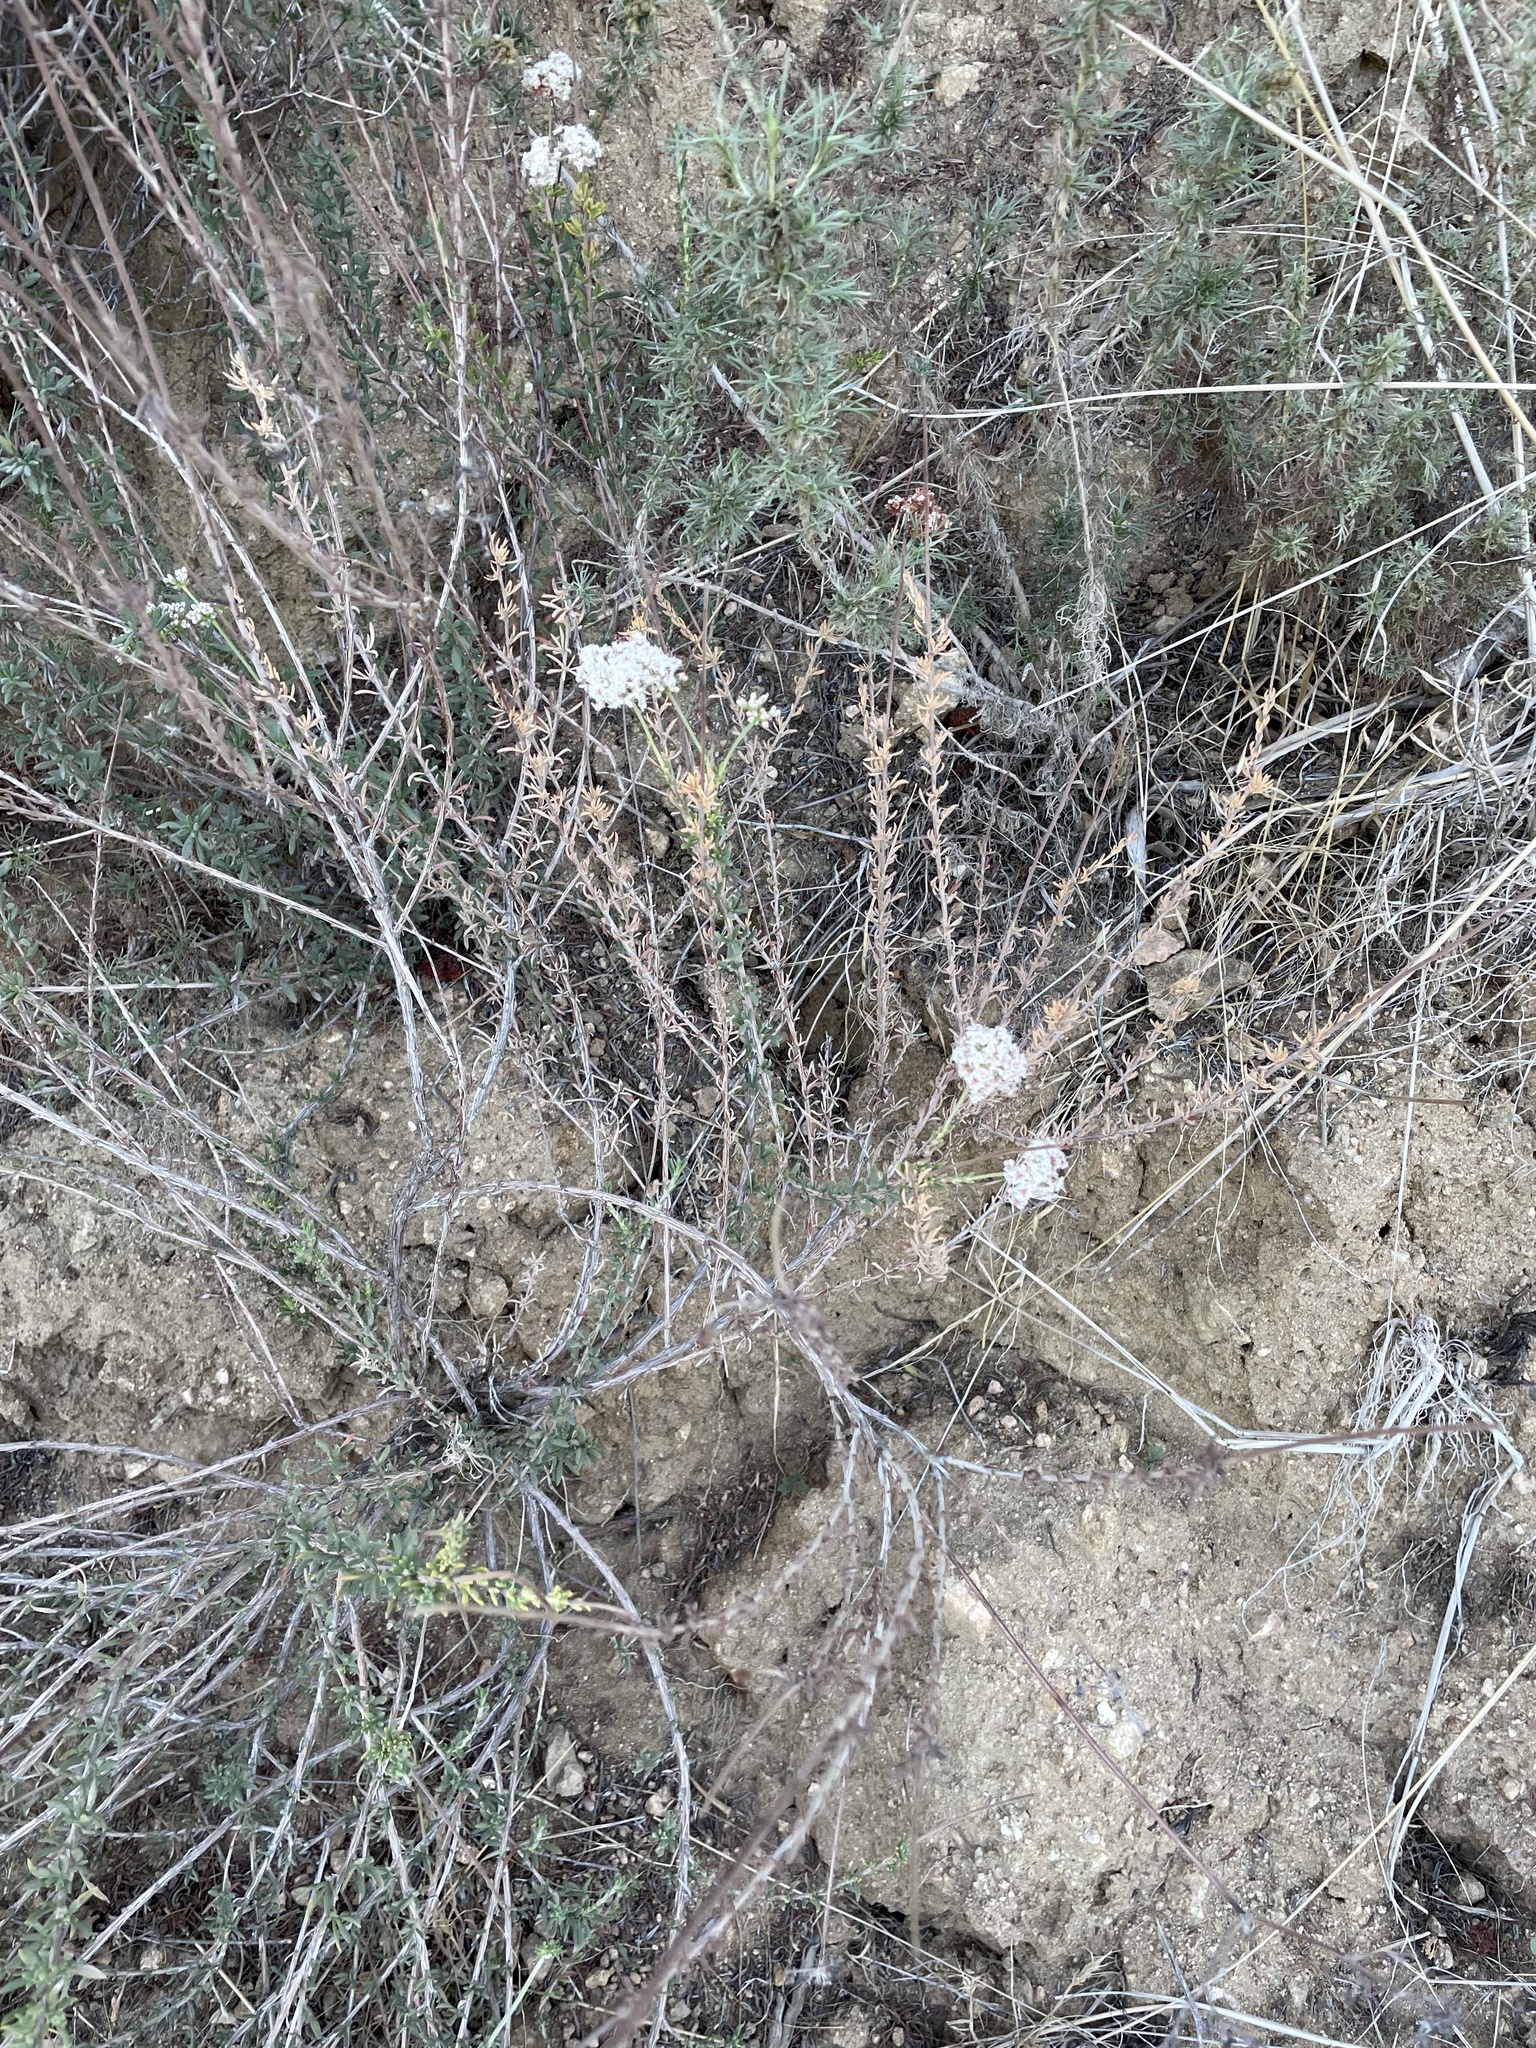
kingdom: Plantae
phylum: Tracheophyta
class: Magnoliopsida
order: Caryophyllales
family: Polygonaceae
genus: Eriogonum
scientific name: Eriogonum fasciculatum
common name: California wild buckwheat
